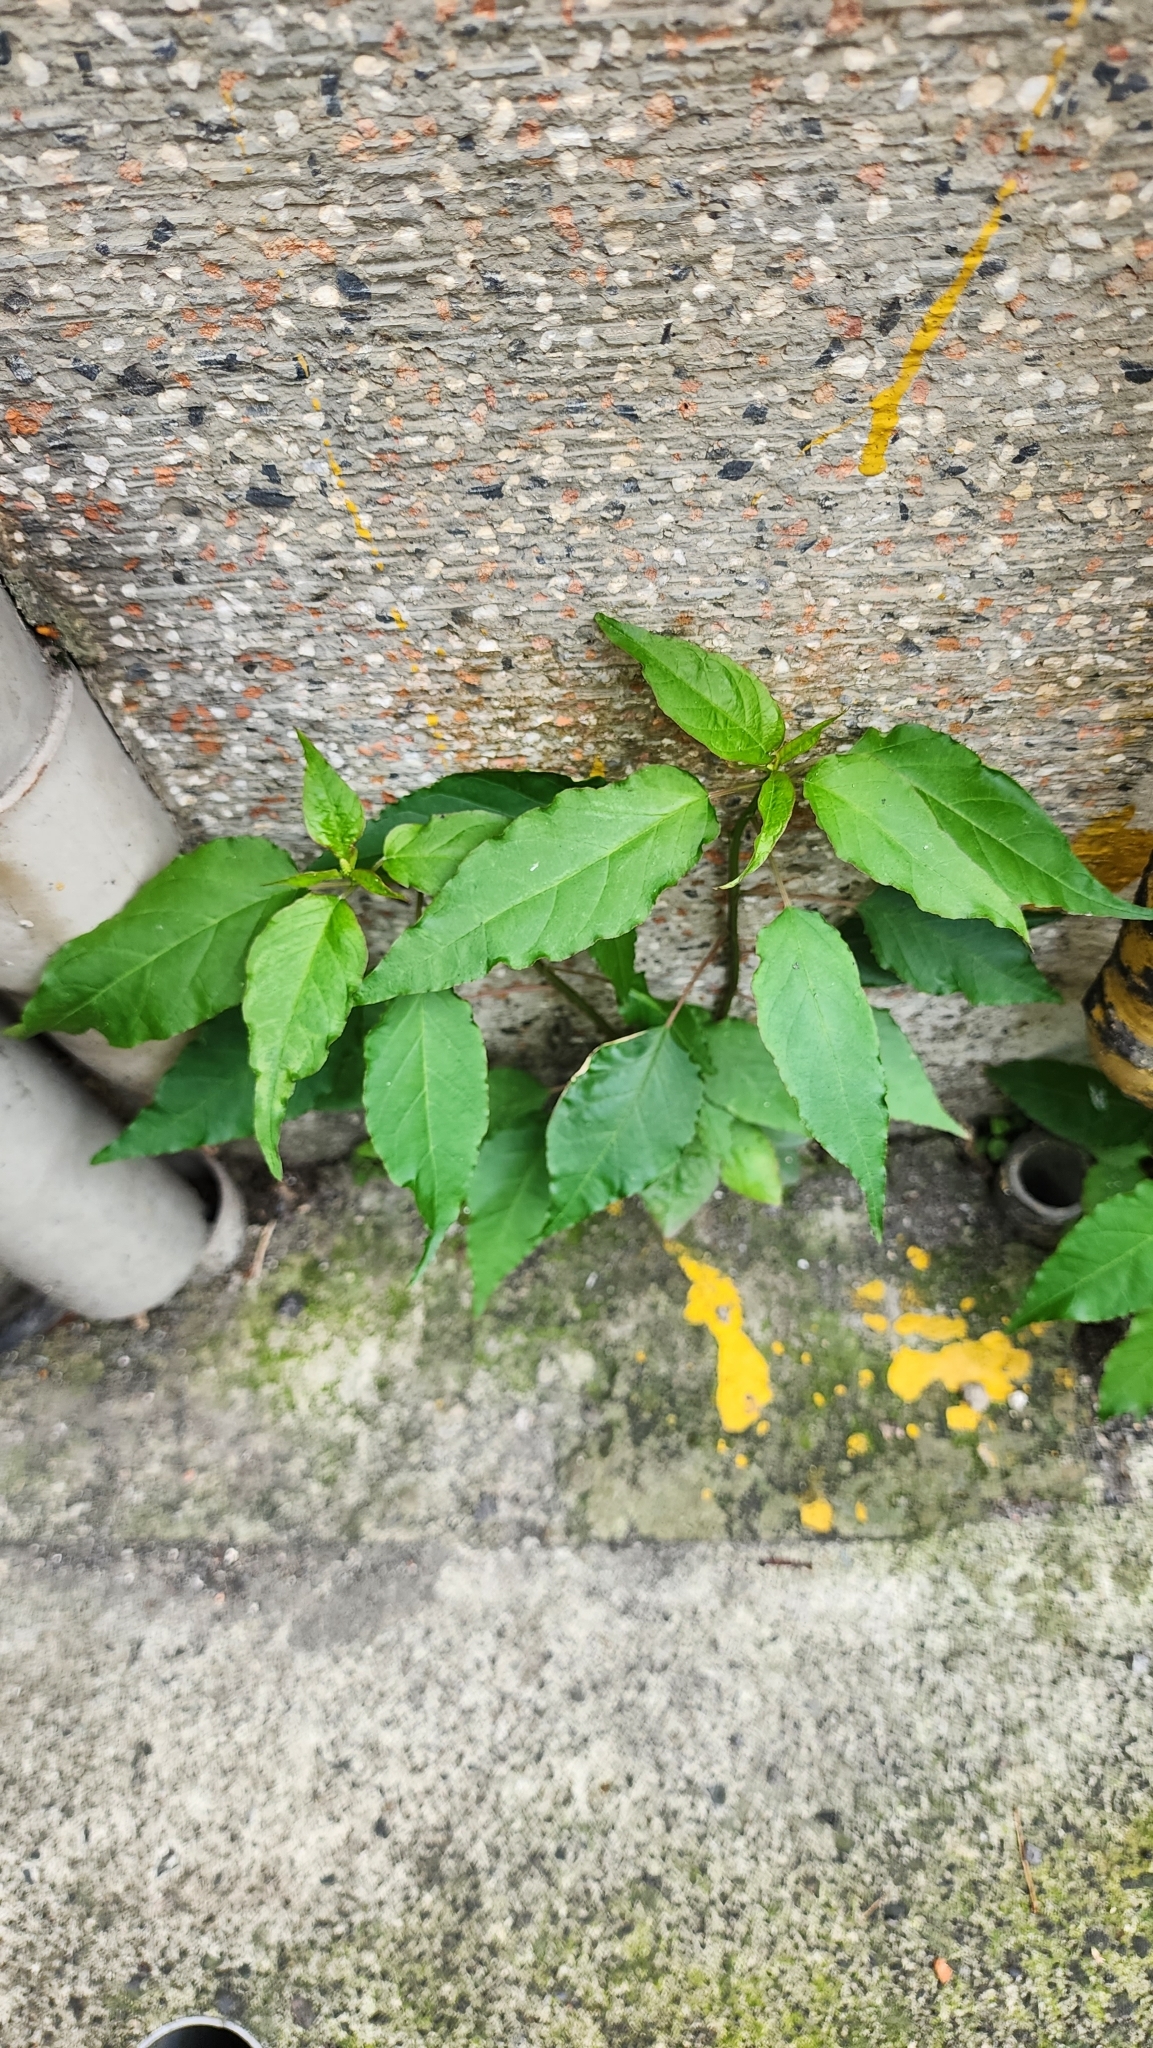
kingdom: Plantae
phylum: Tracheophyta
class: Magnoliopsida
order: Caryophyllales
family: Phytolaccaceae
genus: Rivina
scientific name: Rivina humilis
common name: Rougeplant
